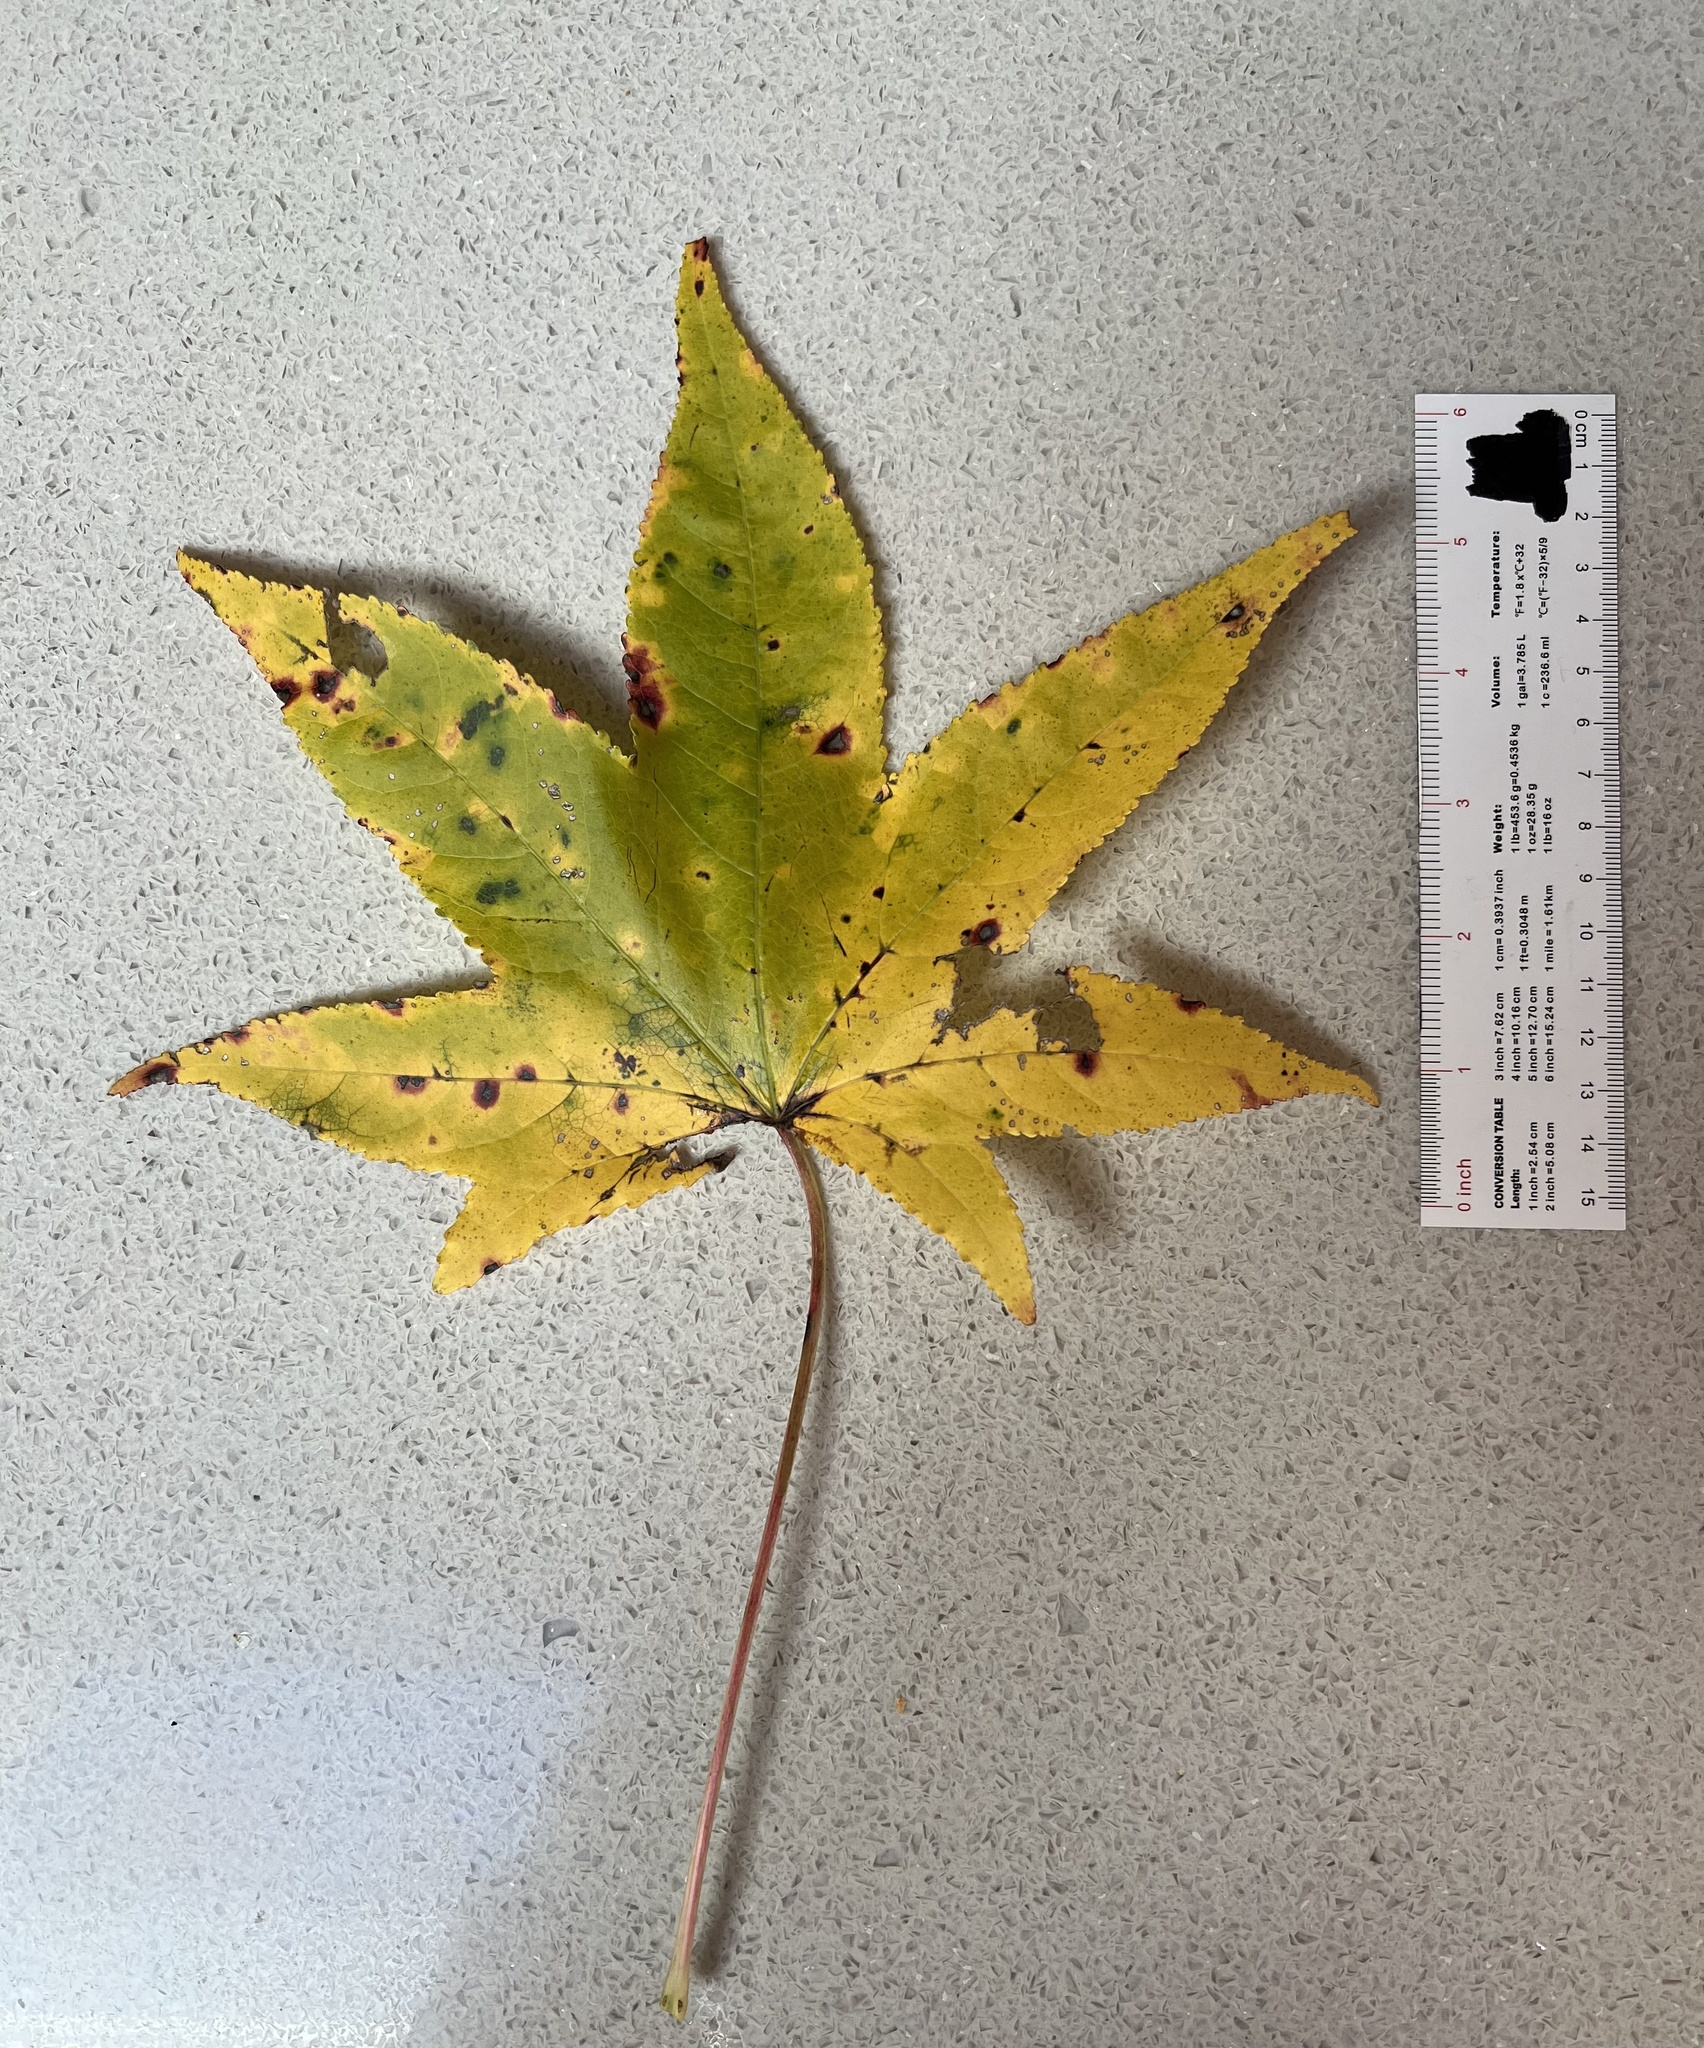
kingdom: Plantae
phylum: Tracheophyta
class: Magnoliopsida
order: Saxifragales
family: Altingiaceae
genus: Liquidambar
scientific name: Liquidambar styraciflua
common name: Sweet gum
